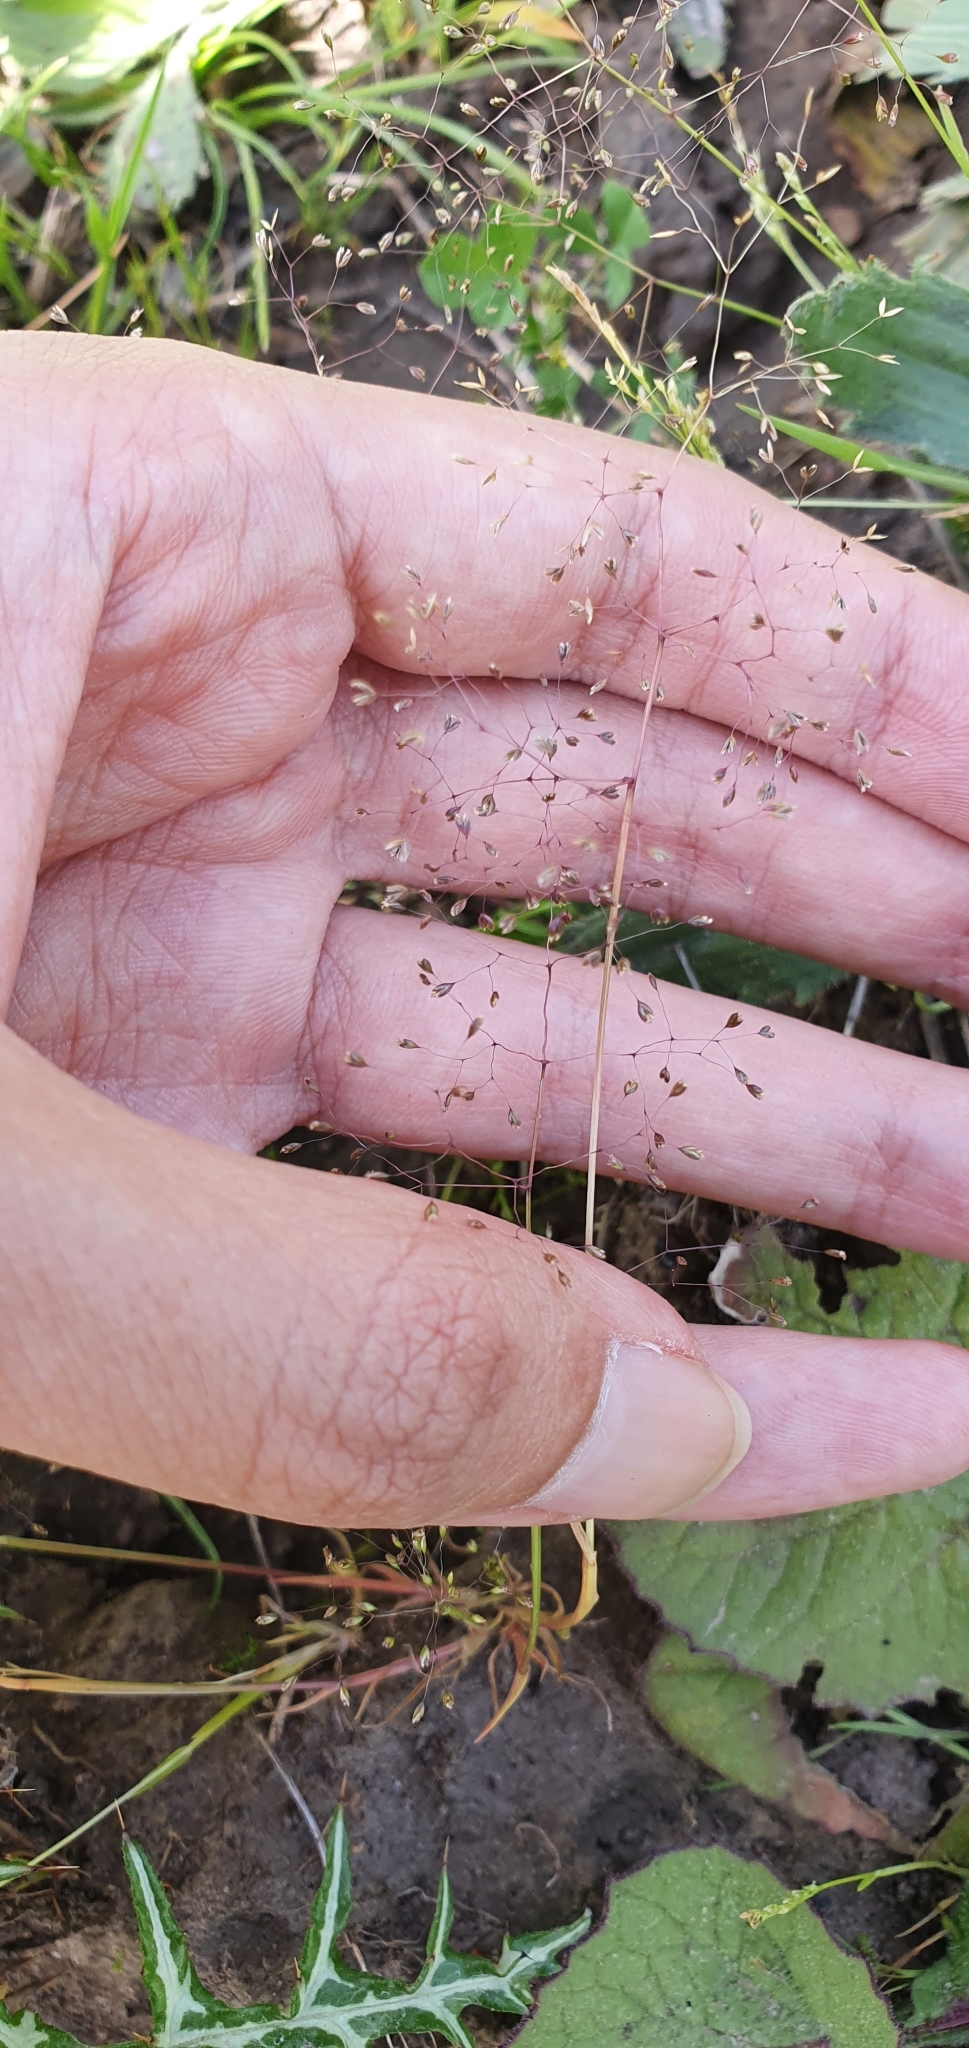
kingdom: Plantae
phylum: Tracheophyta
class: Liliopsida
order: Poales
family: Poaceae
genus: Molineriella
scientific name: Molineriella minuta
